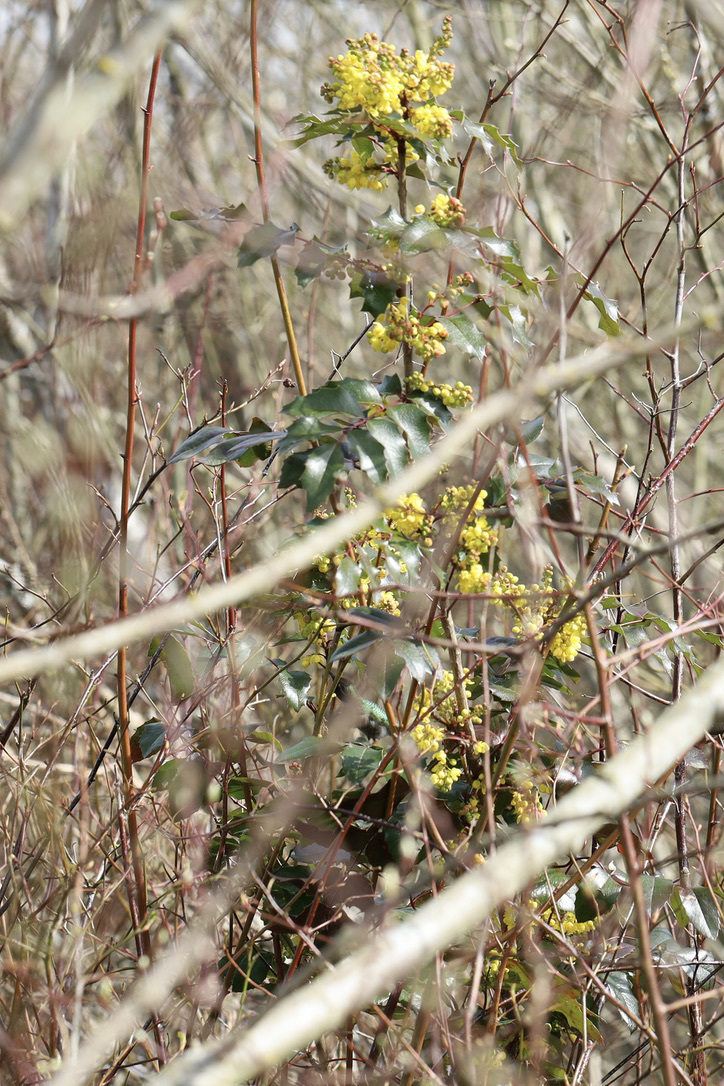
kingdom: Plantae
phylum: Tracheophyta
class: Magnoliopsida
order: Ranunculales
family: Berberidaceae
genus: Mahonia
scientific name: Mahonia aquifolium
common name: Oregon-grape
